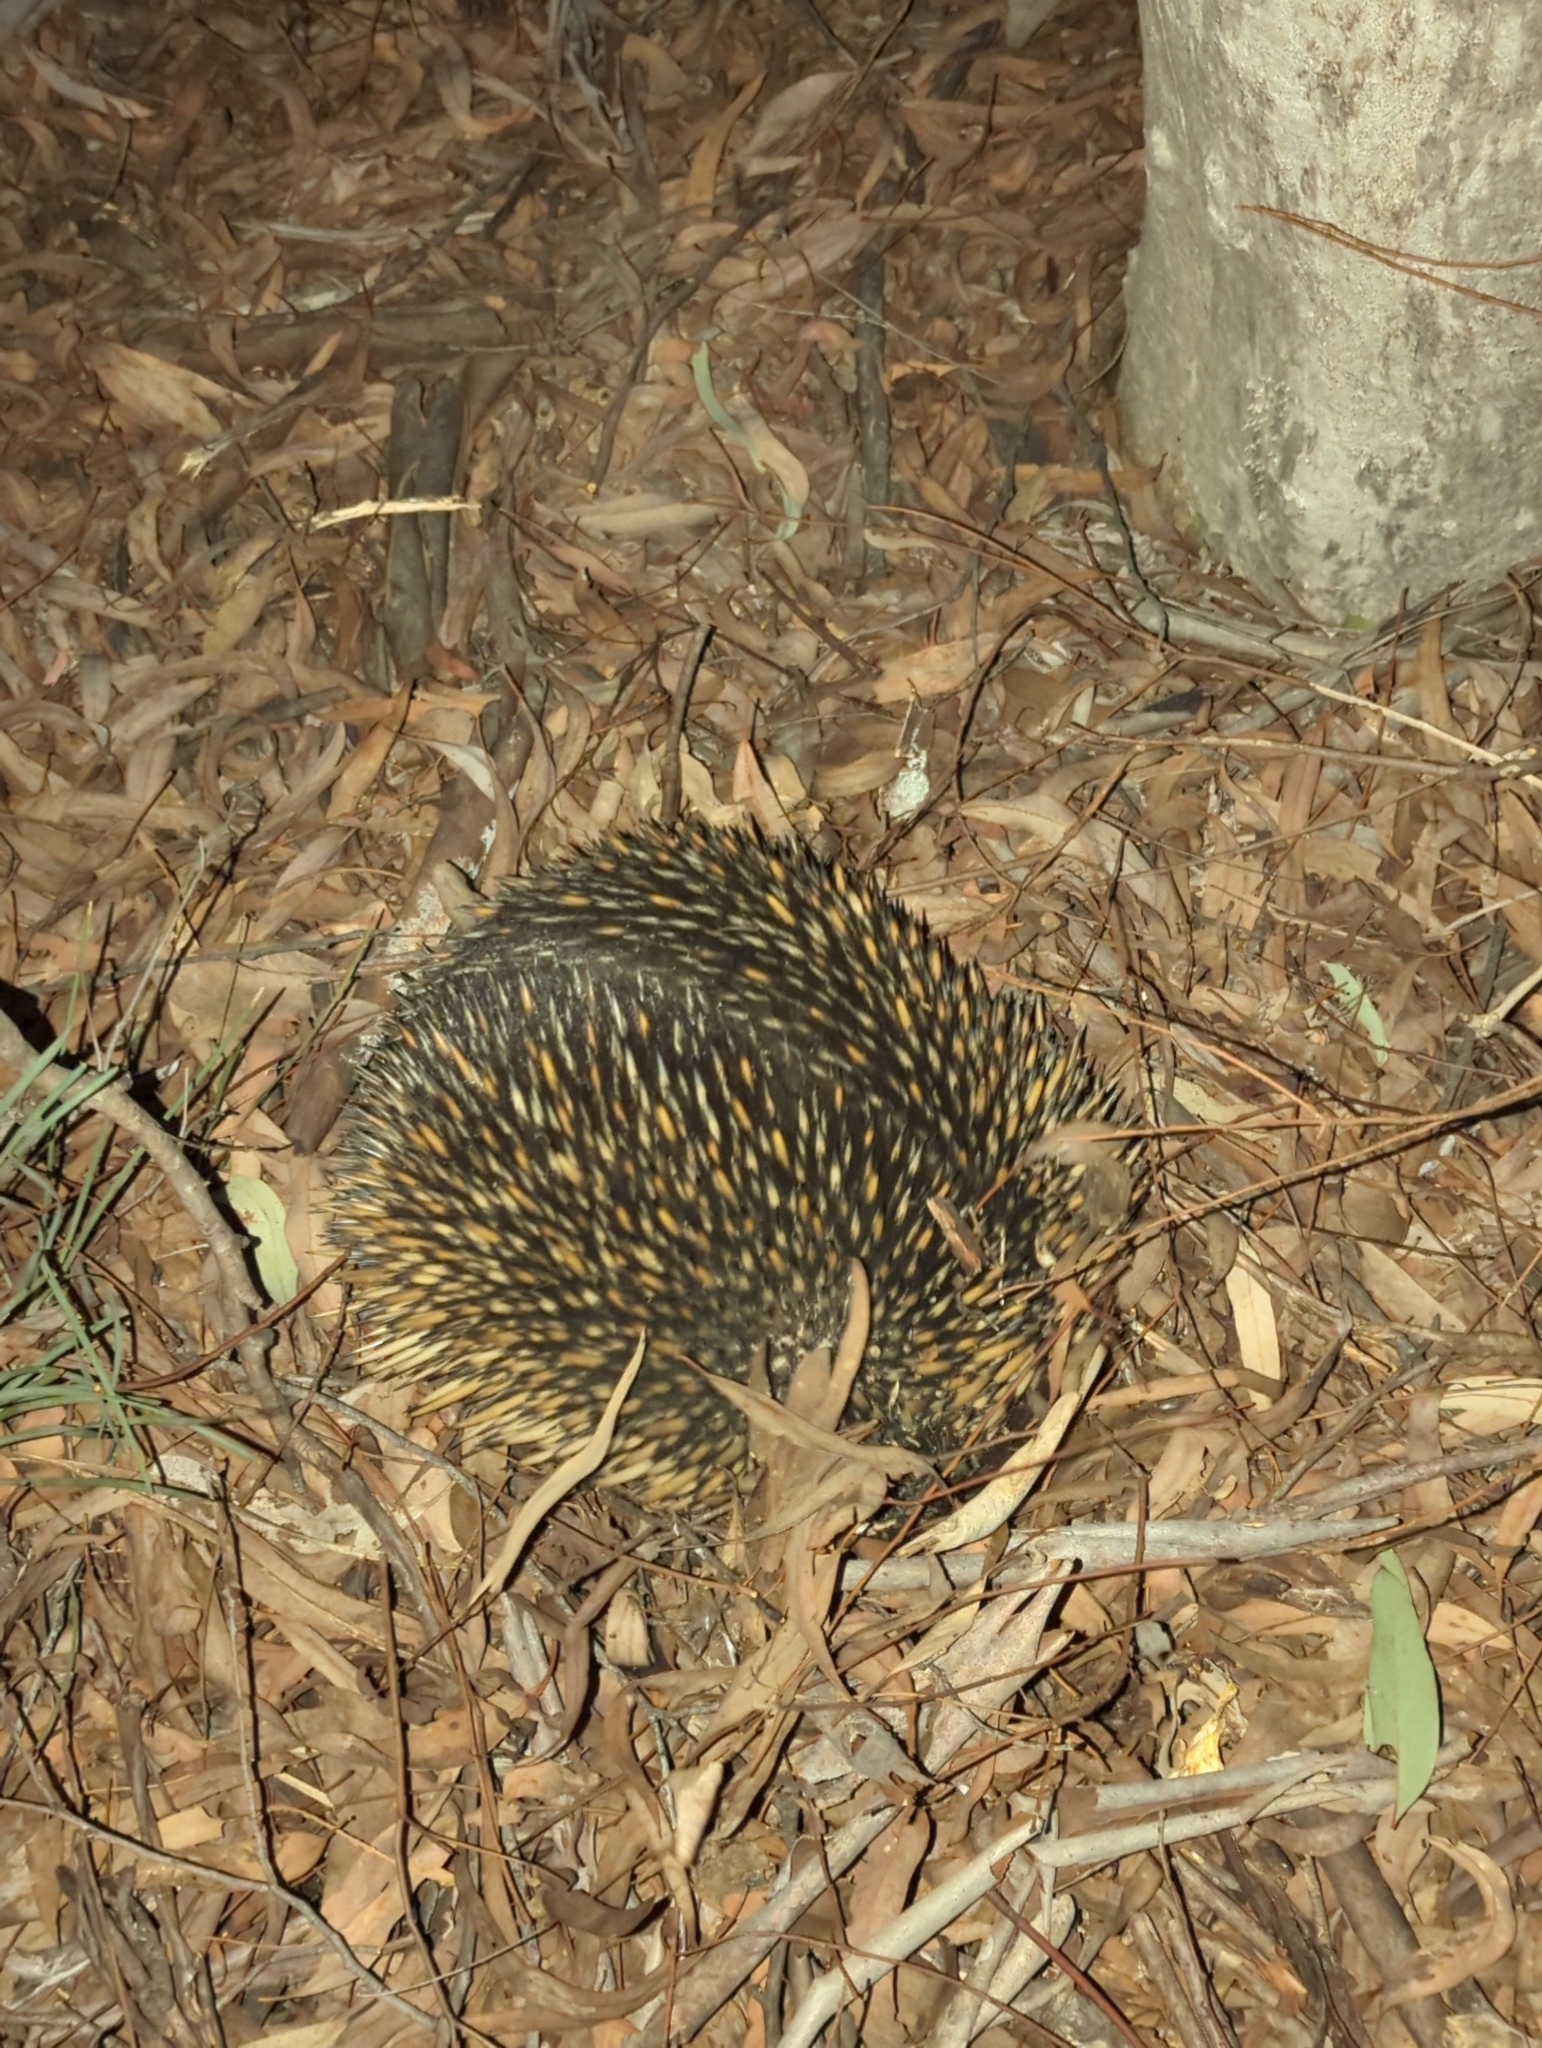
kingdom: Animalia
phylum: Chordata
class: Mammalia
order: Monotremata
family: Tachyglossidae
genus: Tachyglossus
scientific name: Tachyglossus aculeatus
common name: Short-beaked echidna
